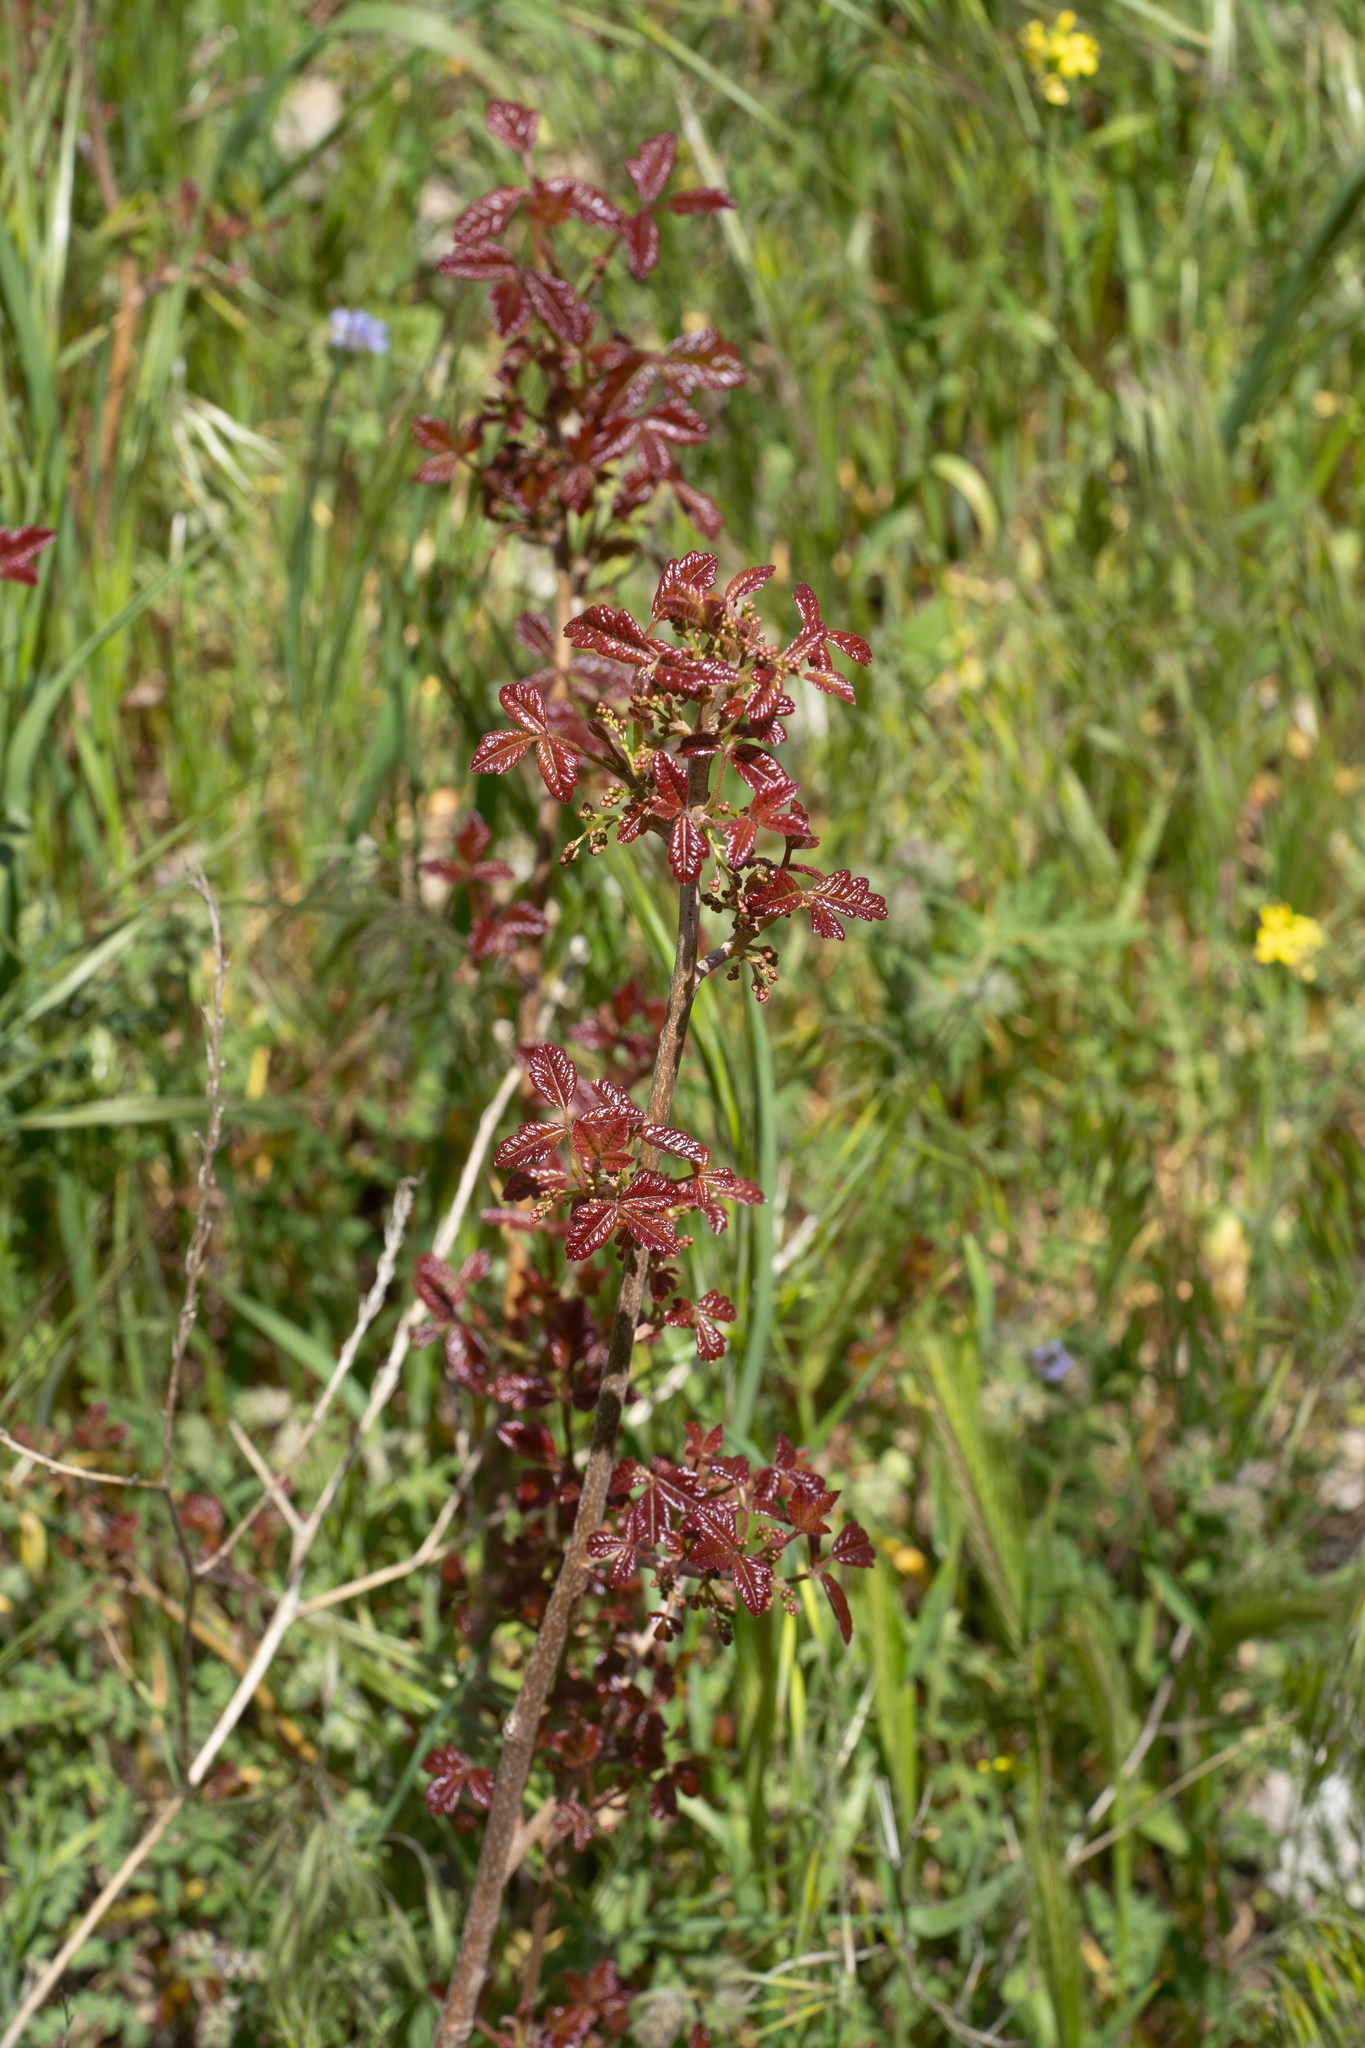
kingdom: Plantae
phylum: Tracheophyta
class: Magnoliopsida
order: Sapindales
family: Anacardiaceae
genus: Toxicodendron
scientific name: Toxicodendron diversilobum
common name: Pacific poison-oak
